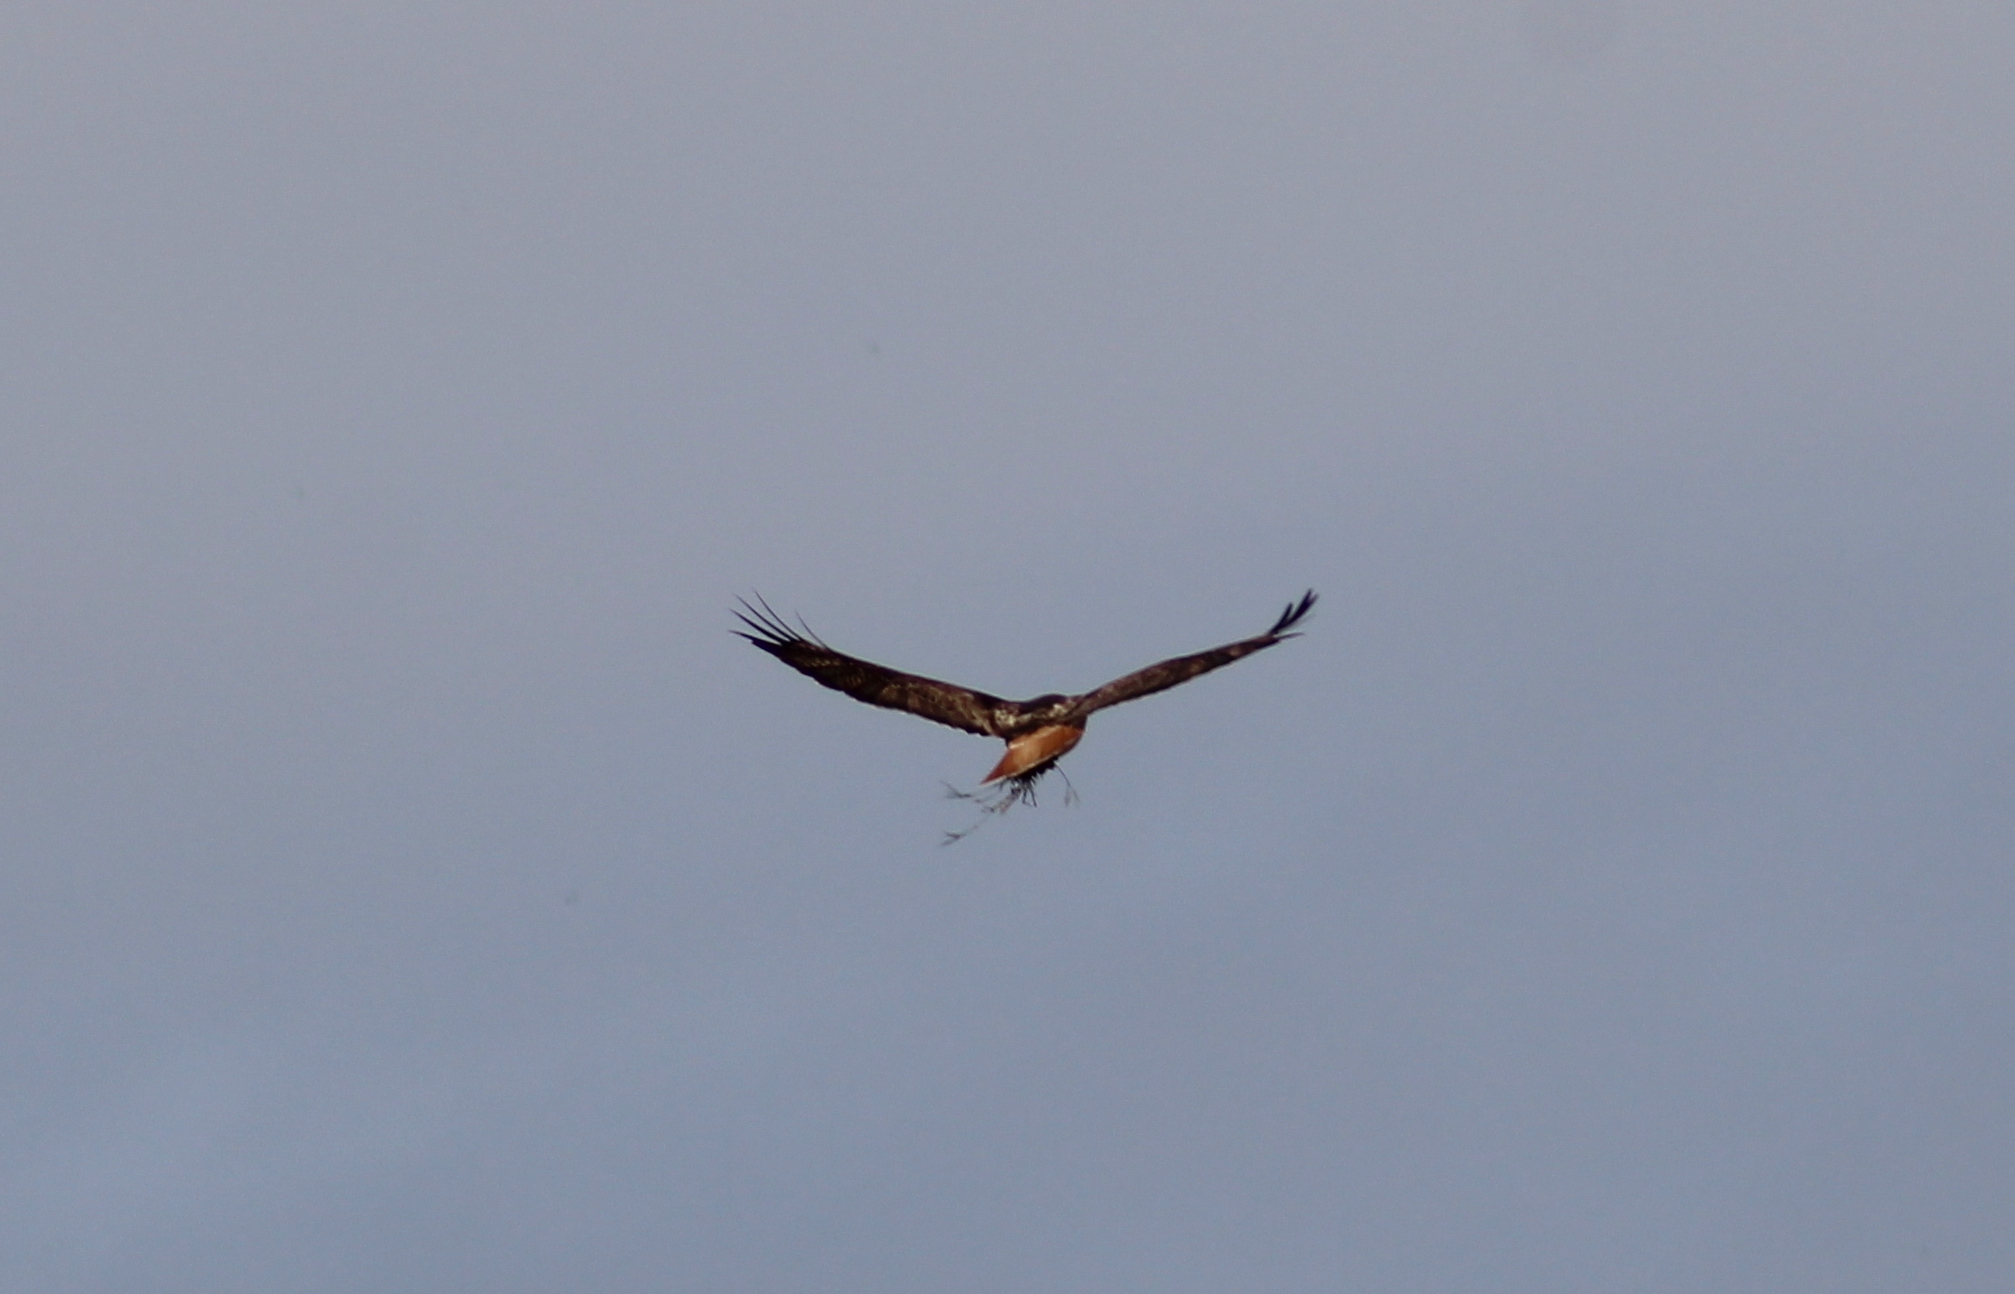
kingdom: Animalia
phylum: Chordata
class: Aves
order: Accipitriformes
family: Accipitridae
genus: Buteo
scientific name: Buteo jamaicensis
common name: Red-tailed hawk
